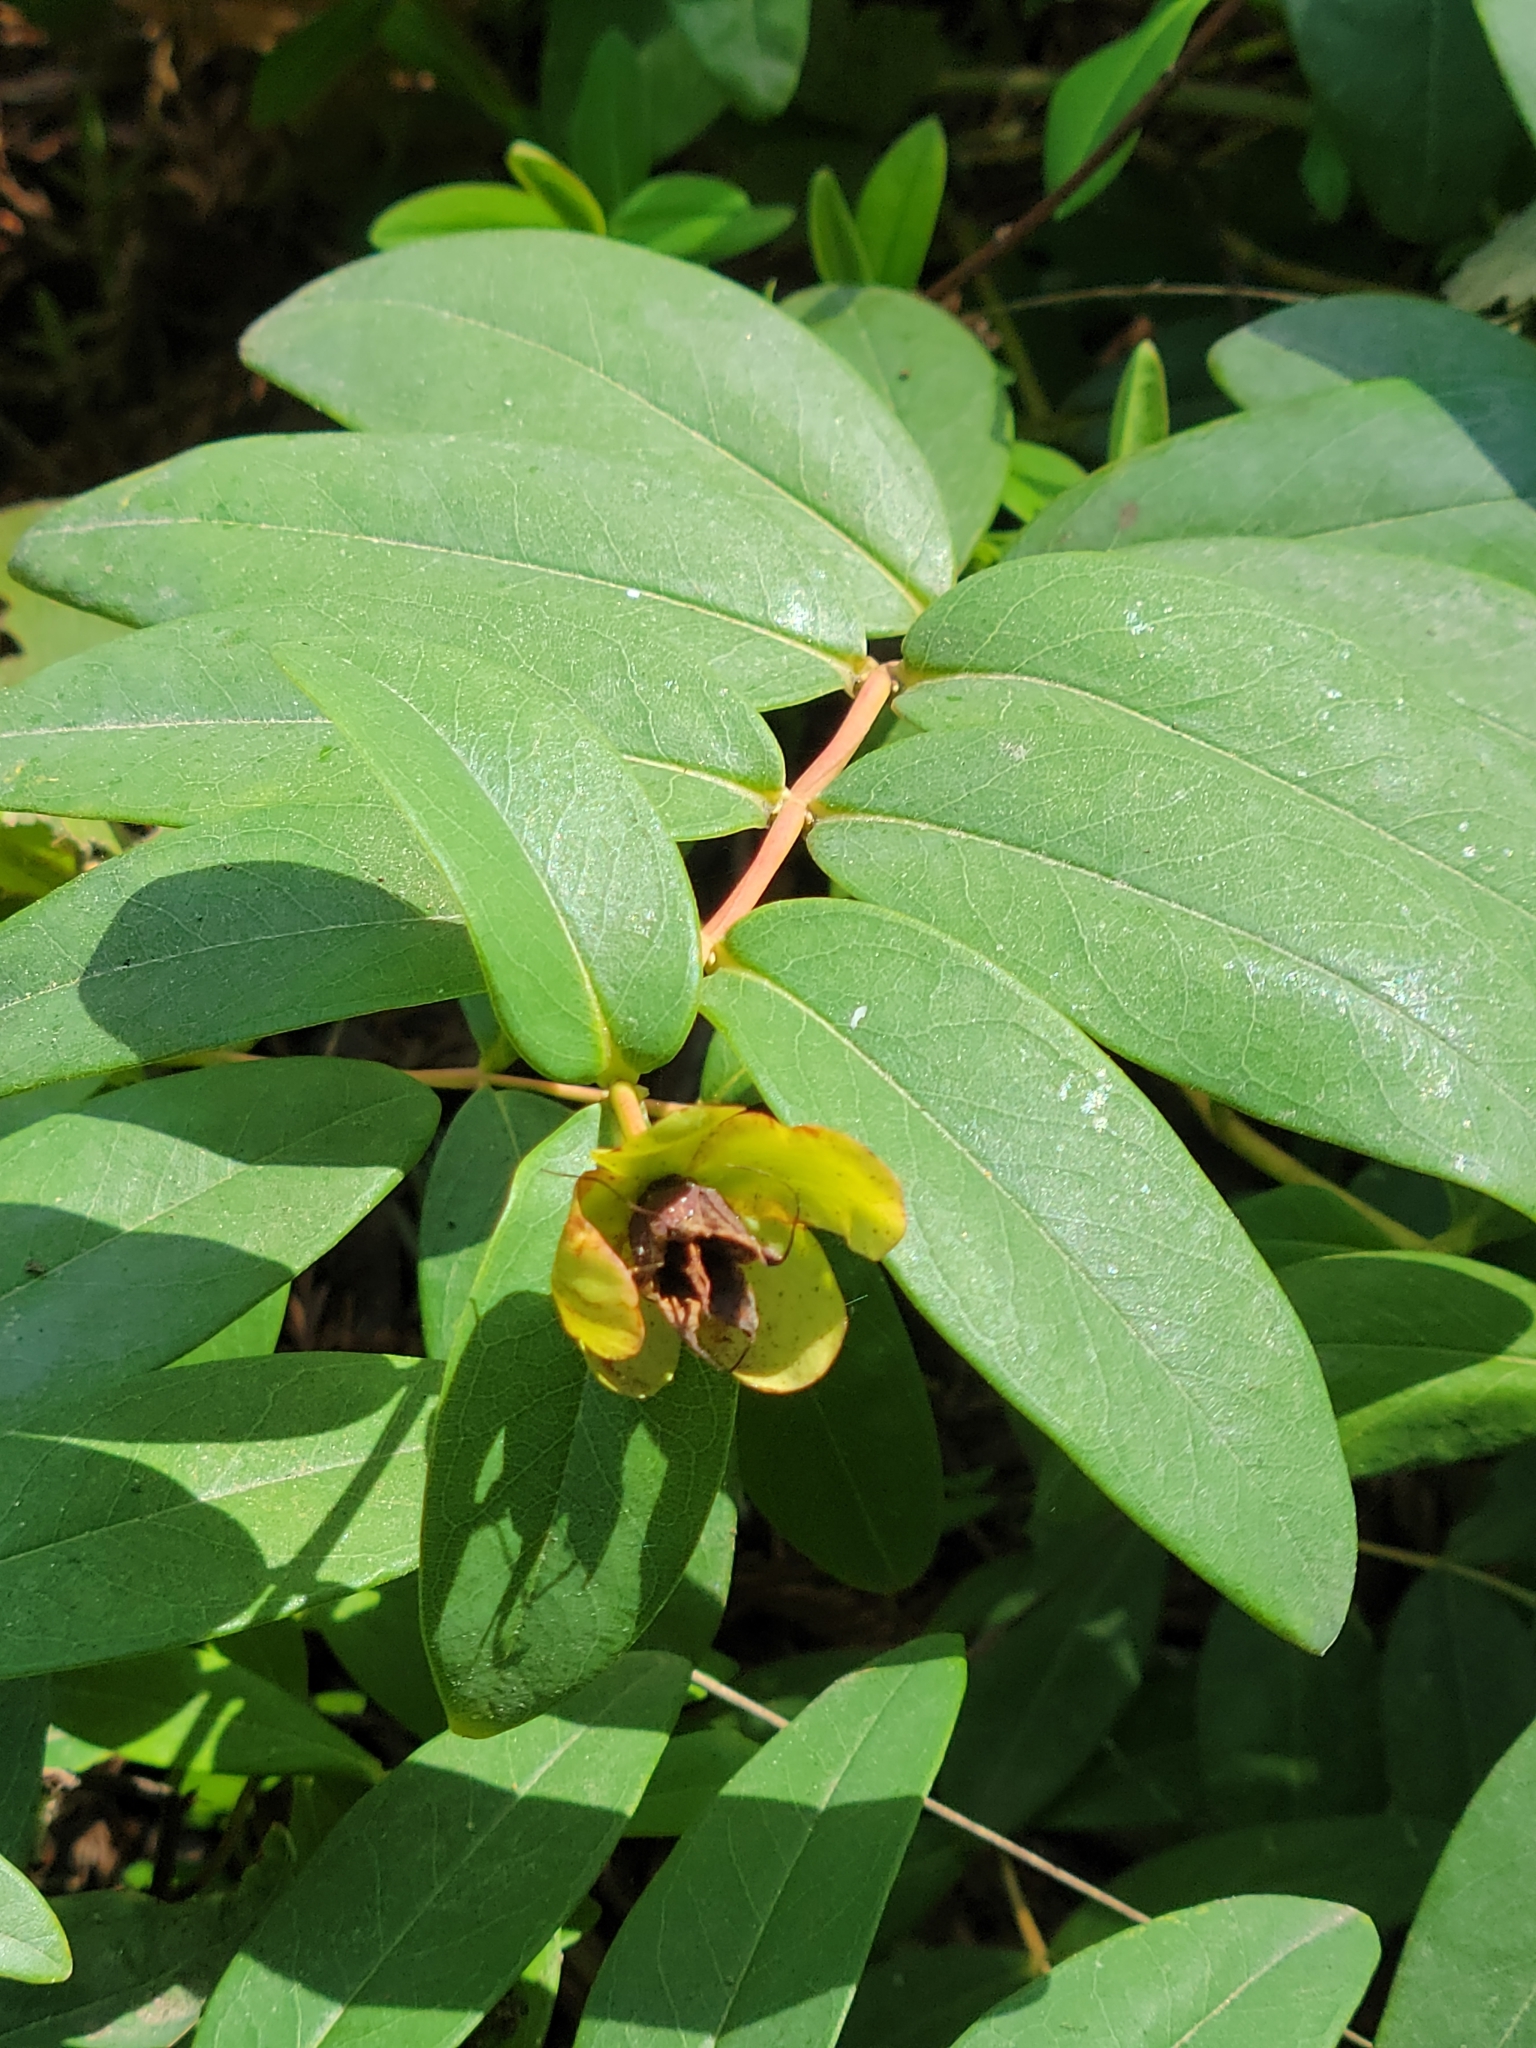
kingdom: Plantae
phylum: Tracheophyta
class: Magnoliopsida
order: Malpighiales
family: Hypericaceae
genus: Hypericum
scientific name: Hypericum calycinum
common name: Rose-of-sharon
